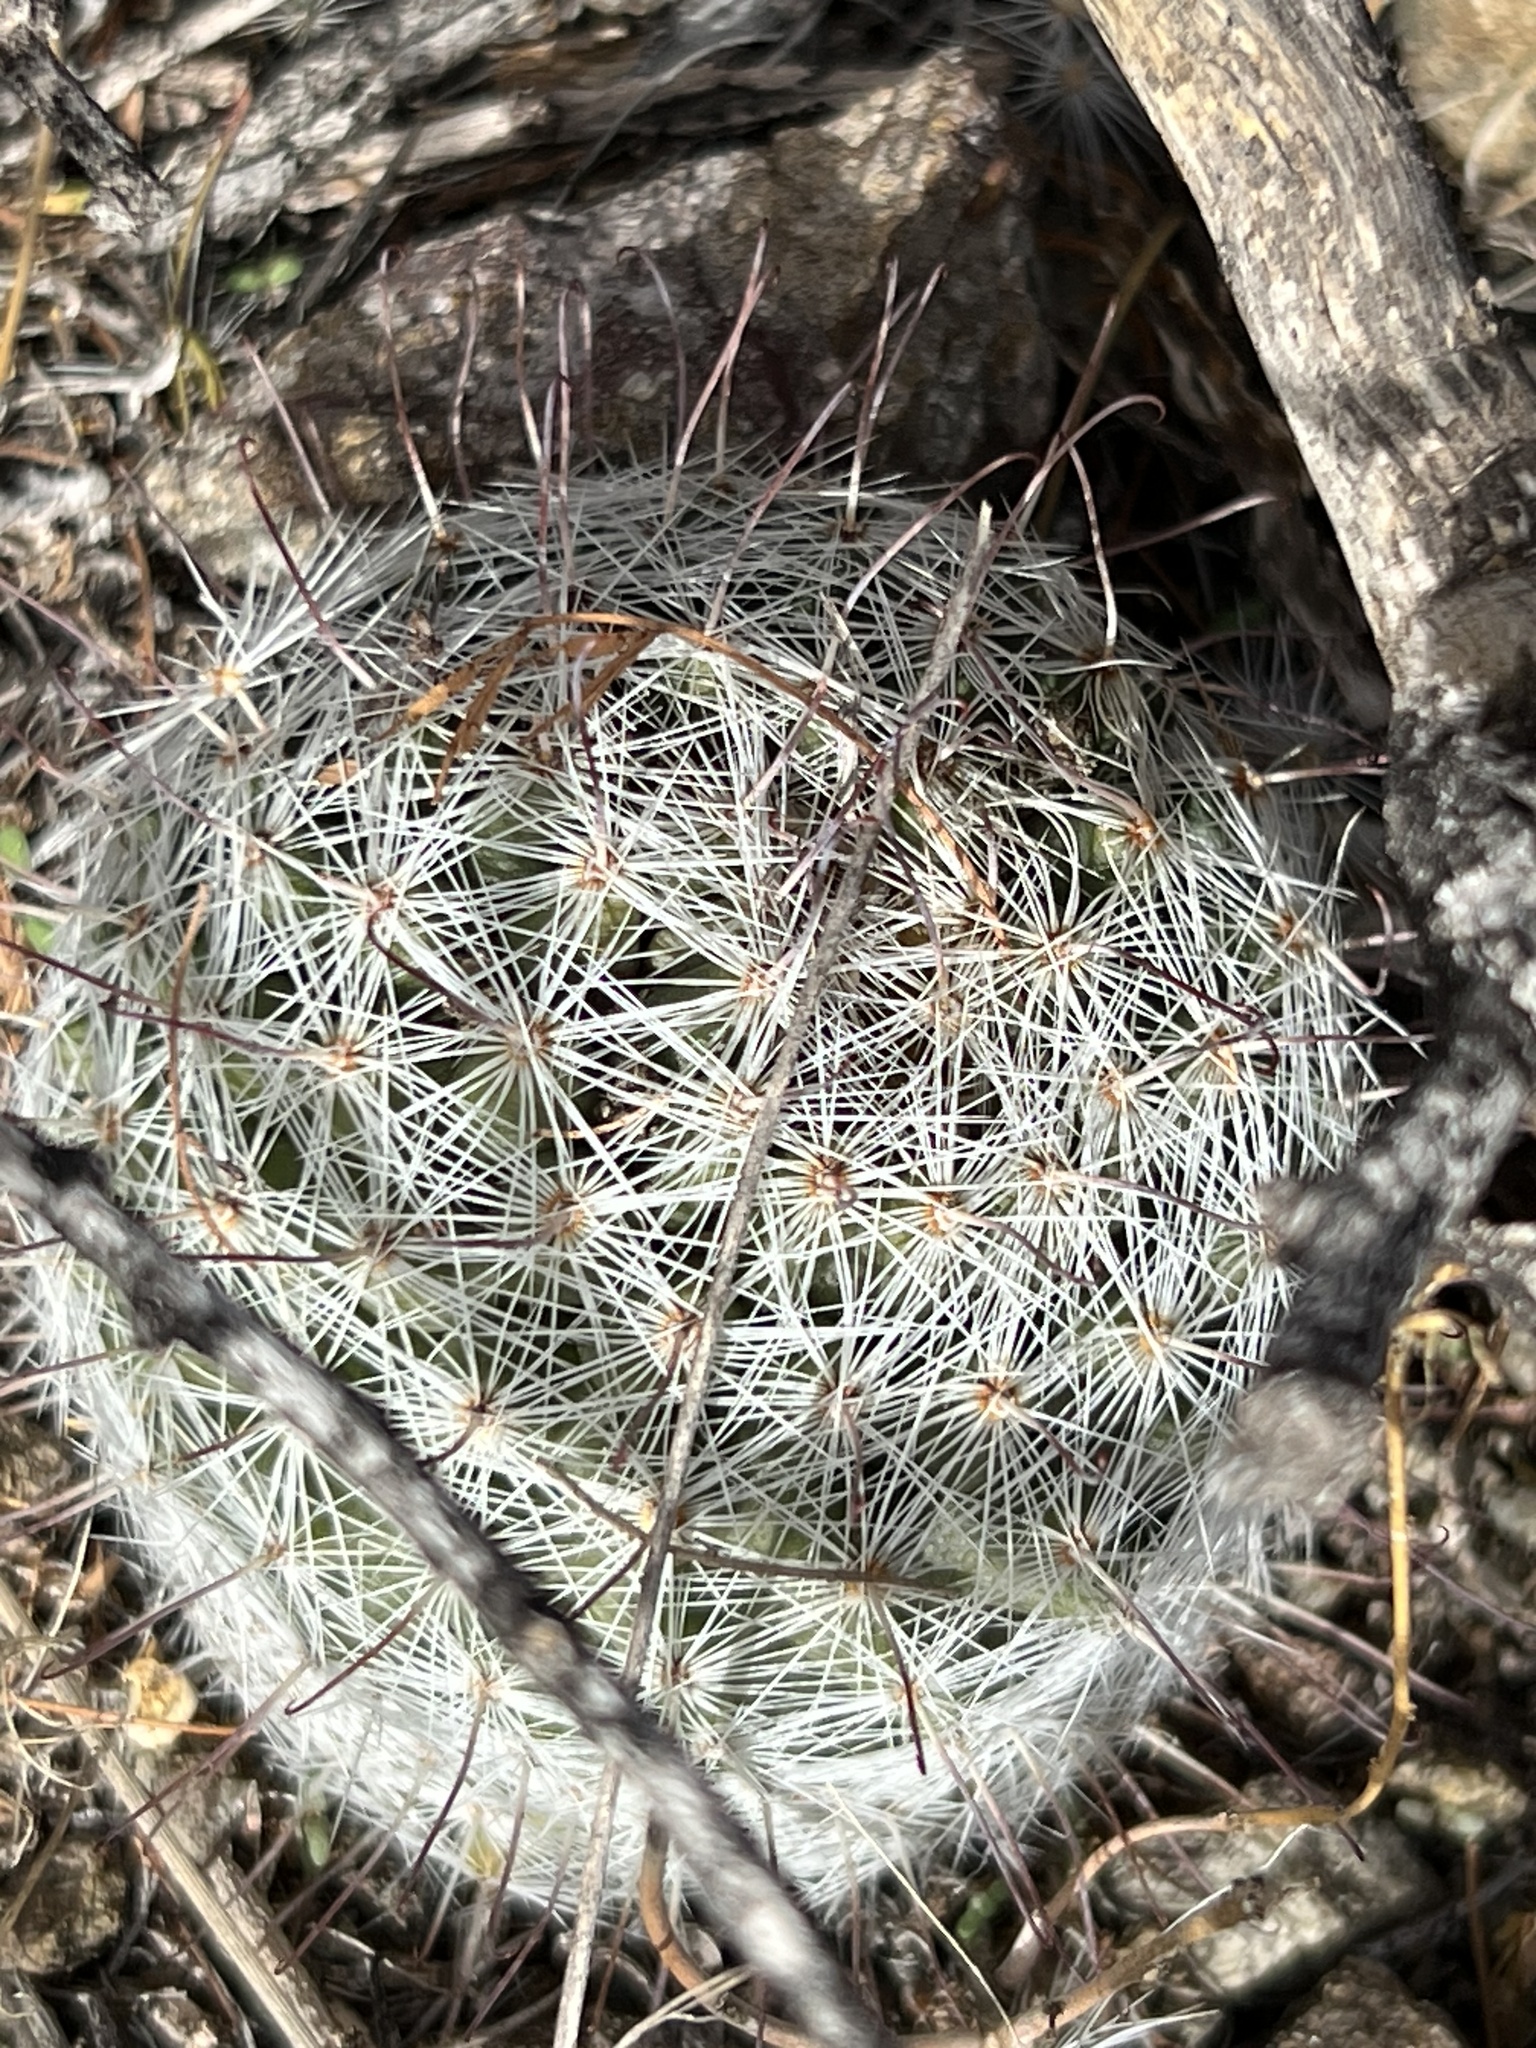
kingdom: Plantae
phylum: Tracheophyta
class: Magnoliopsida
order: Caryophyllales
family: Cactaceae
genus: Cochemiea
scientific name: Cochemiea grahamii
